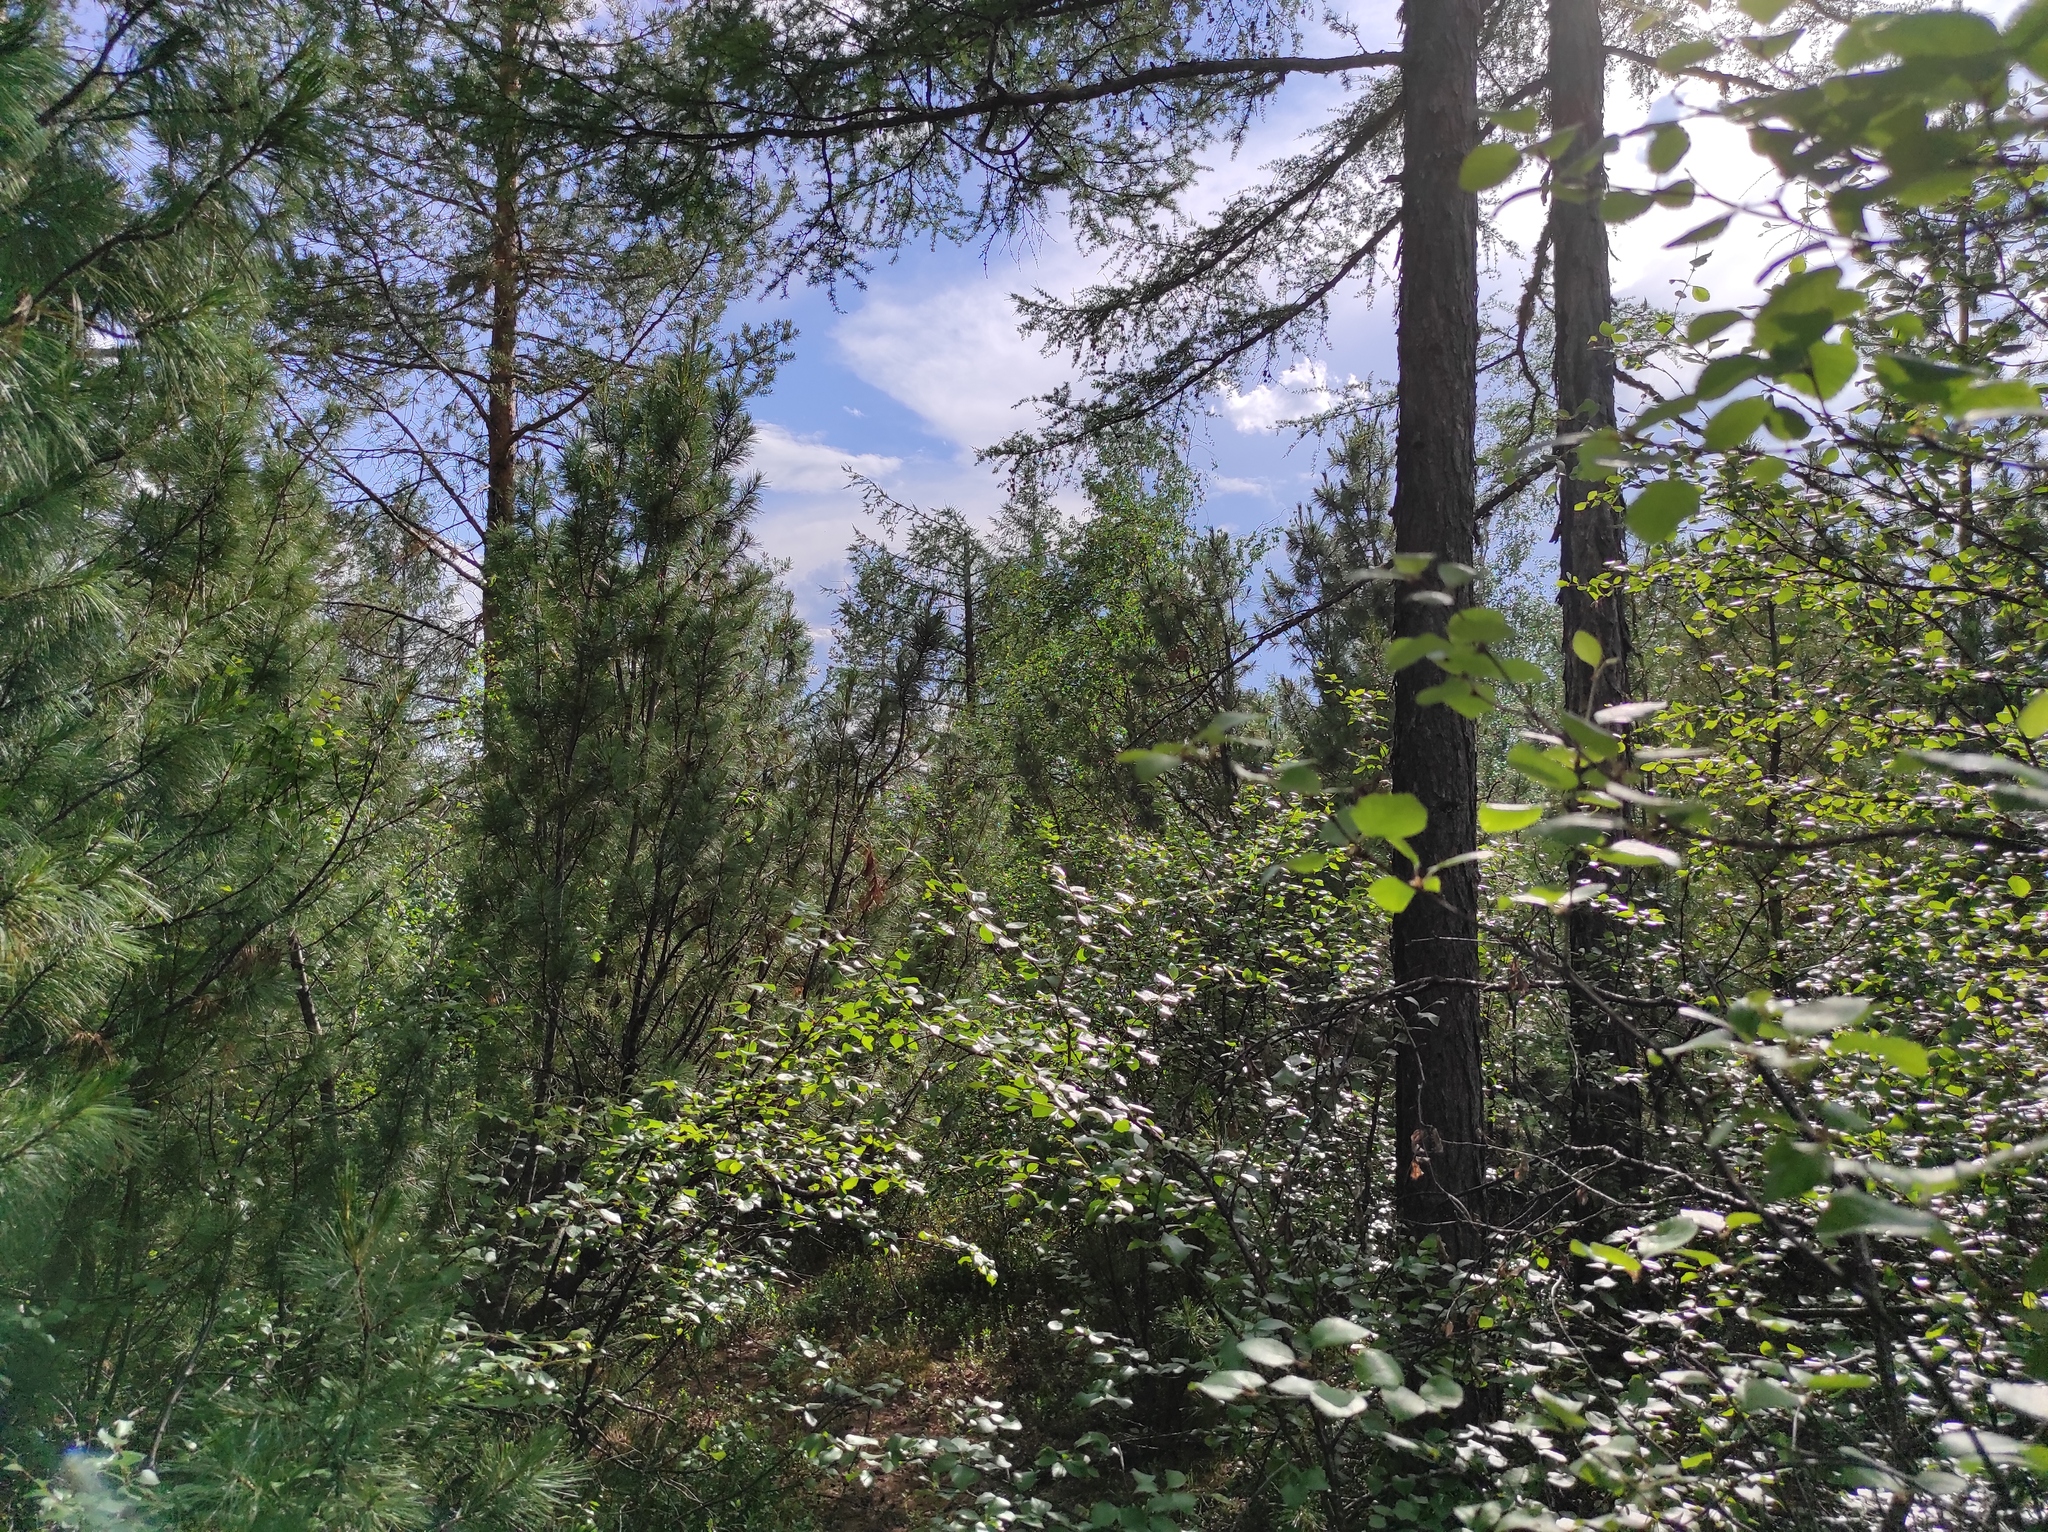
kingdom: Plantae
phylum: Tracheophyta
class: Pinopsida
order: Pinales
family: Pinaceae
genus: Pinus
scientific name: Pinus sylvestris
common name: Scots pine
